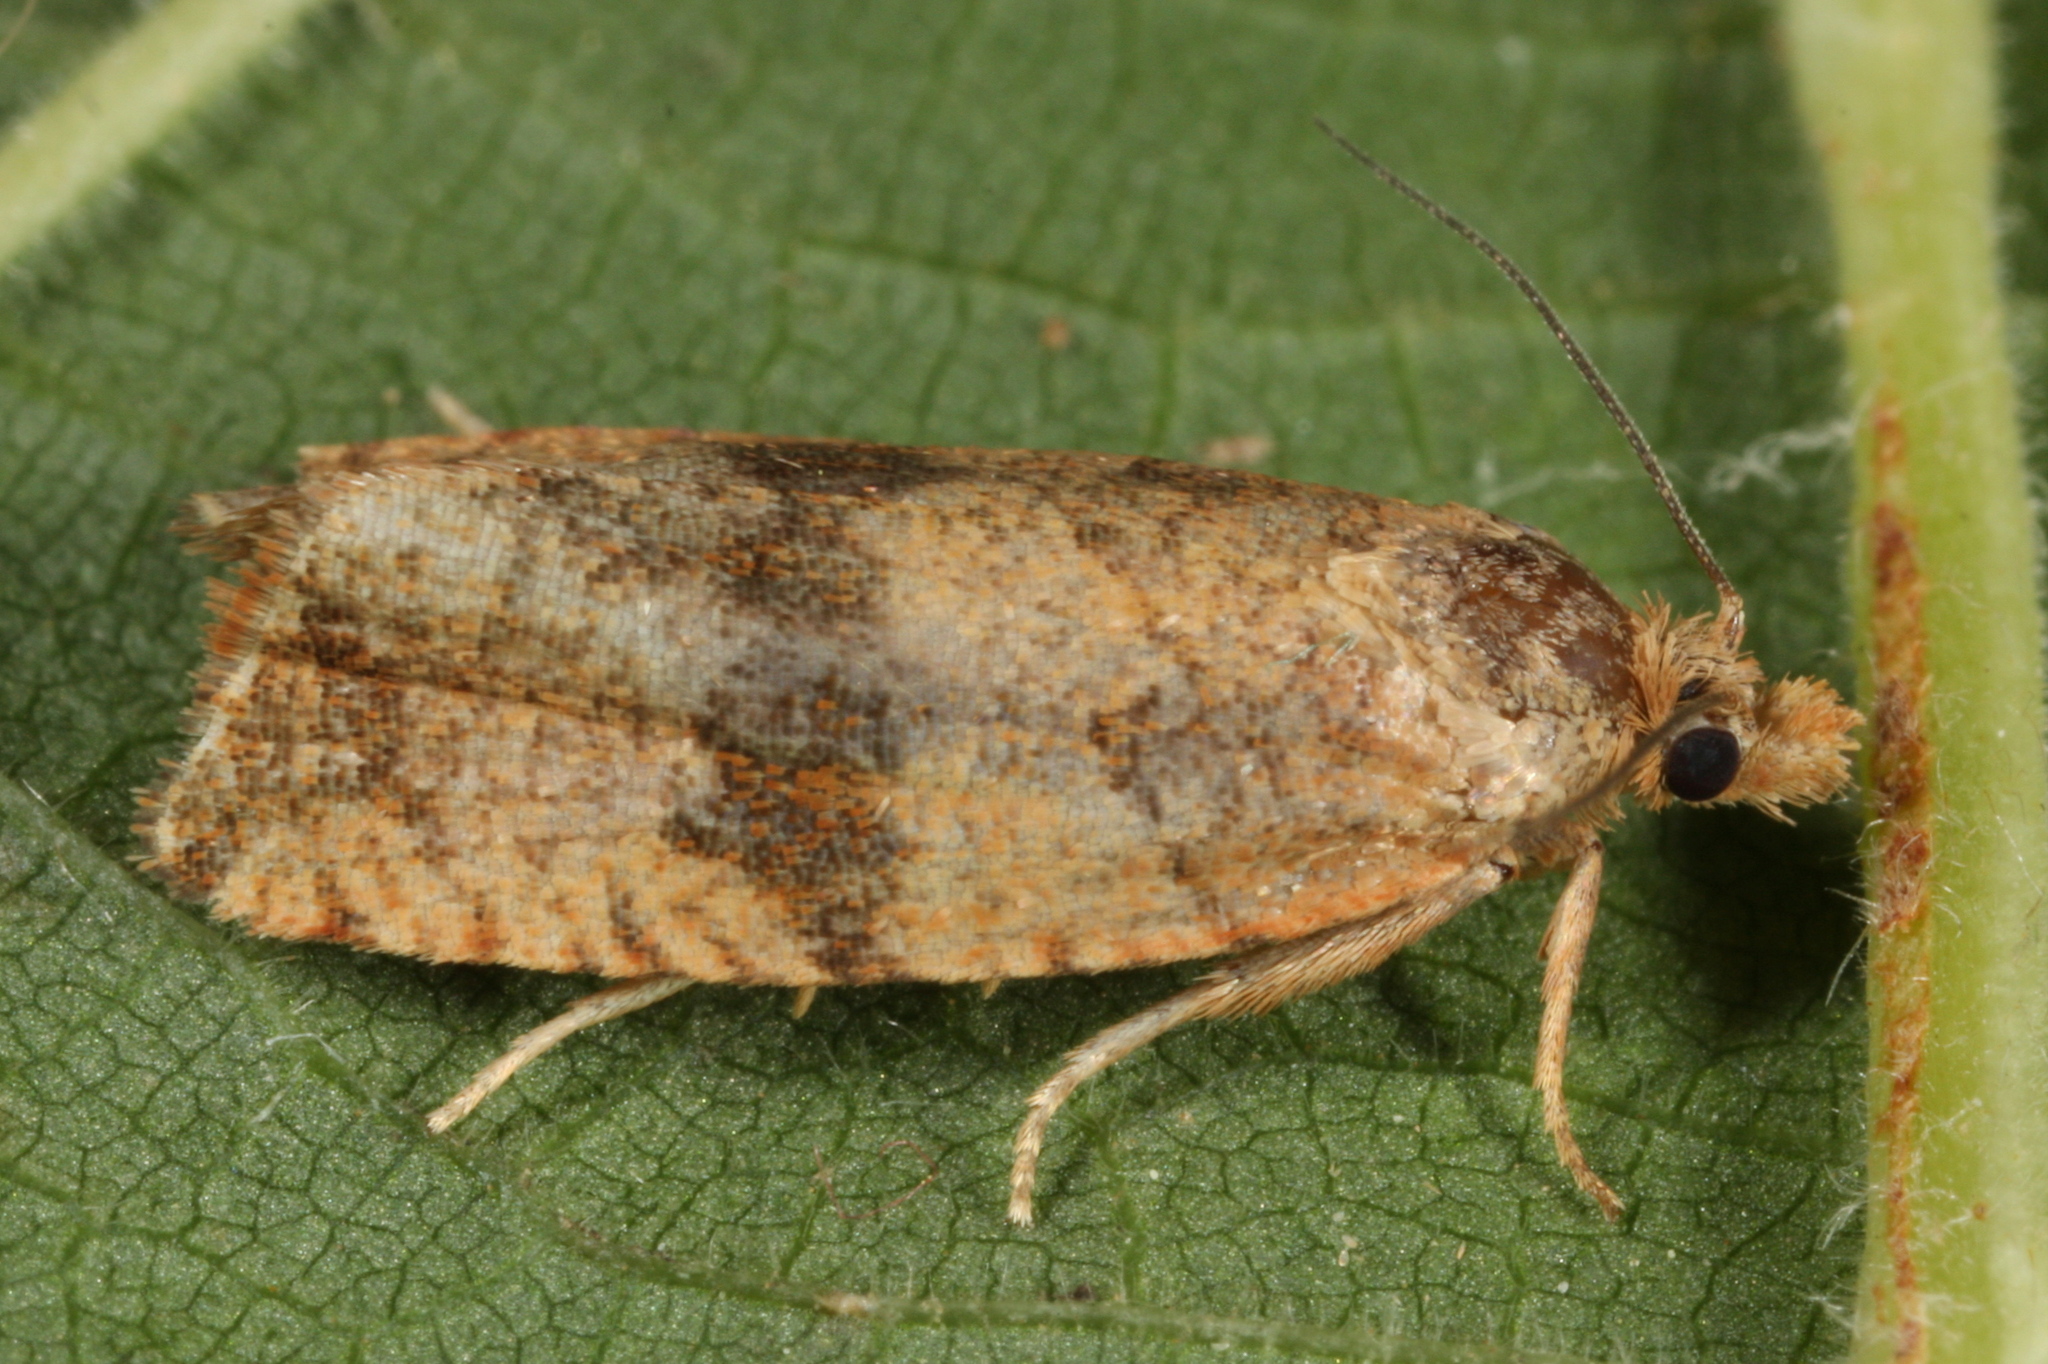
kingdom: Animalia
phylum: Arthropoda
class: Insecta
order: Lepidoptera
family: Tortricidae
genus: Celypha
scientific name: Celypha striana
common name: Barred marble
